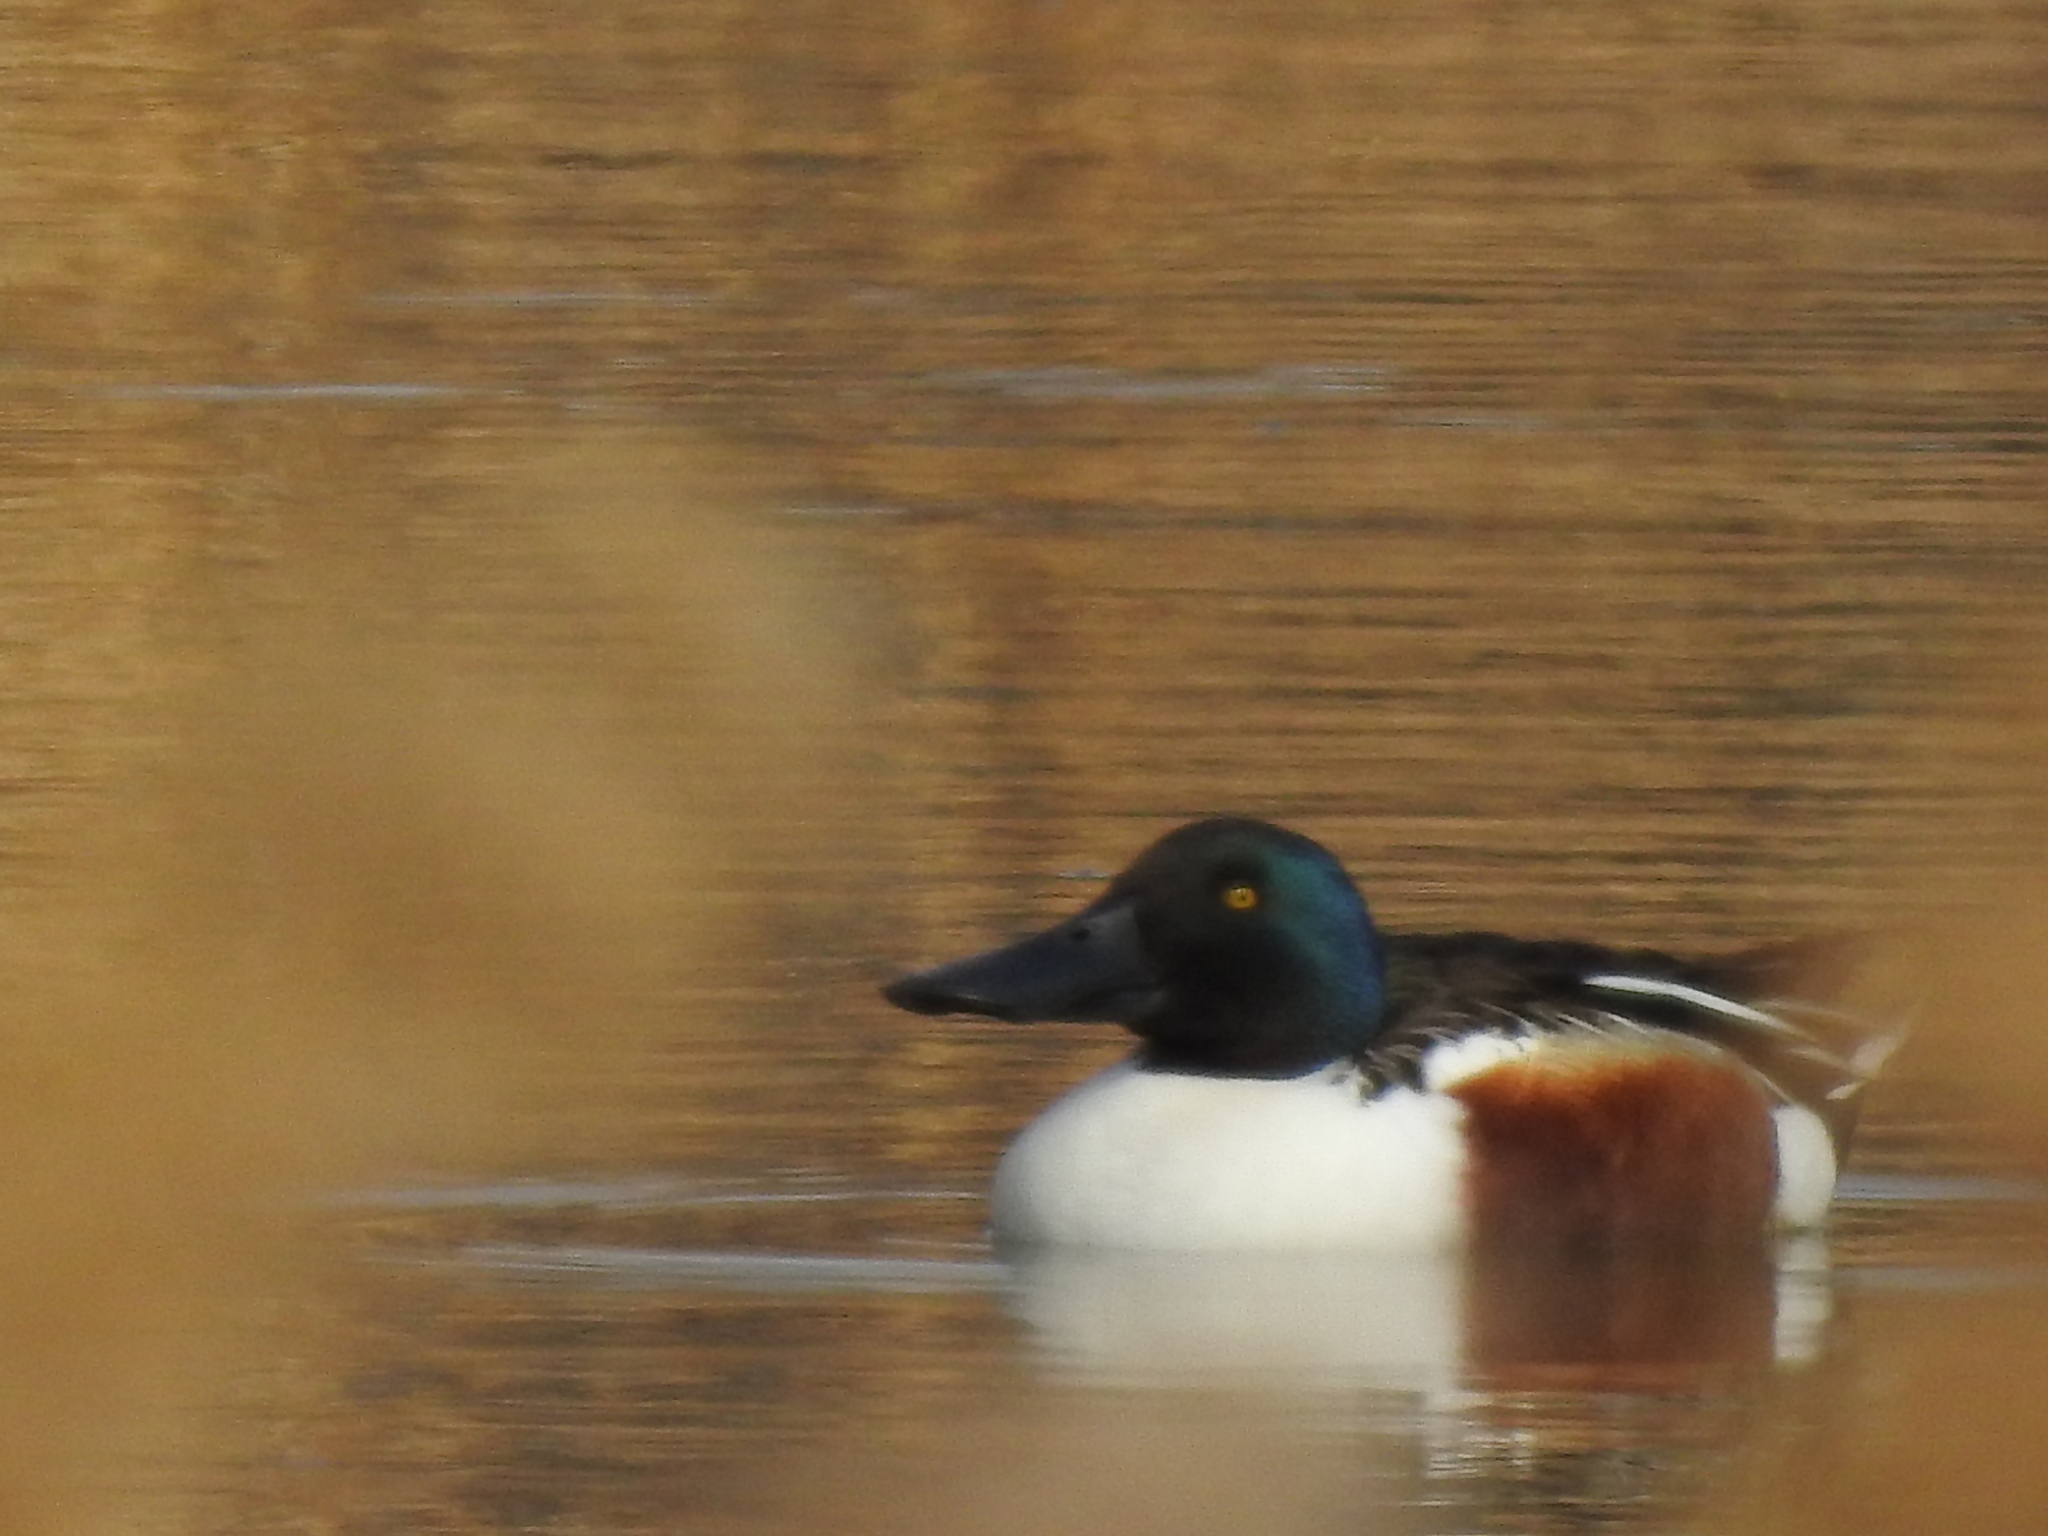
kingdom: Animalia
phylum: Chordata
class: Aves
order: Anseriformes
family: Anatidae
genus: Spatula
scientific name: Spatula clypeata
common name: Northern shoveler
